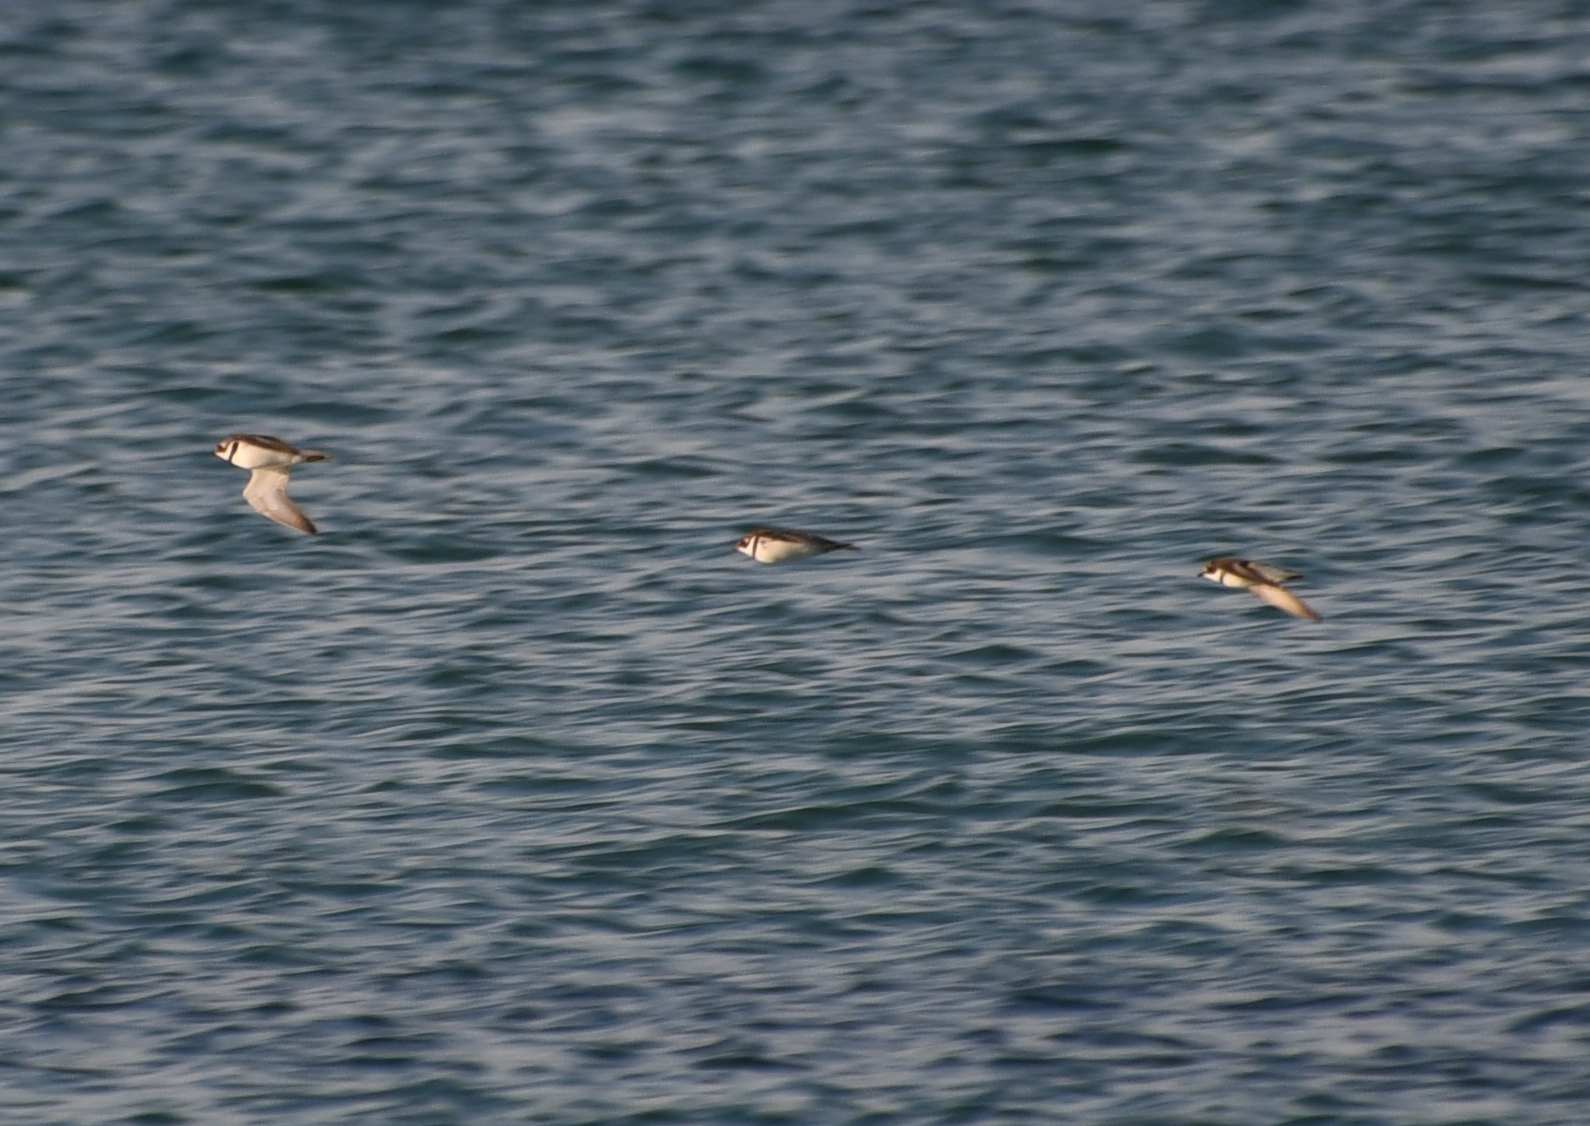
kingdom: Animalia
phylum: Chordata
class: Aves
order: Charadriiformes
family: Charadriidae
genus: Charadrius
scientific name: Charadrius semipalmatus
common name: Semipalmated plover
